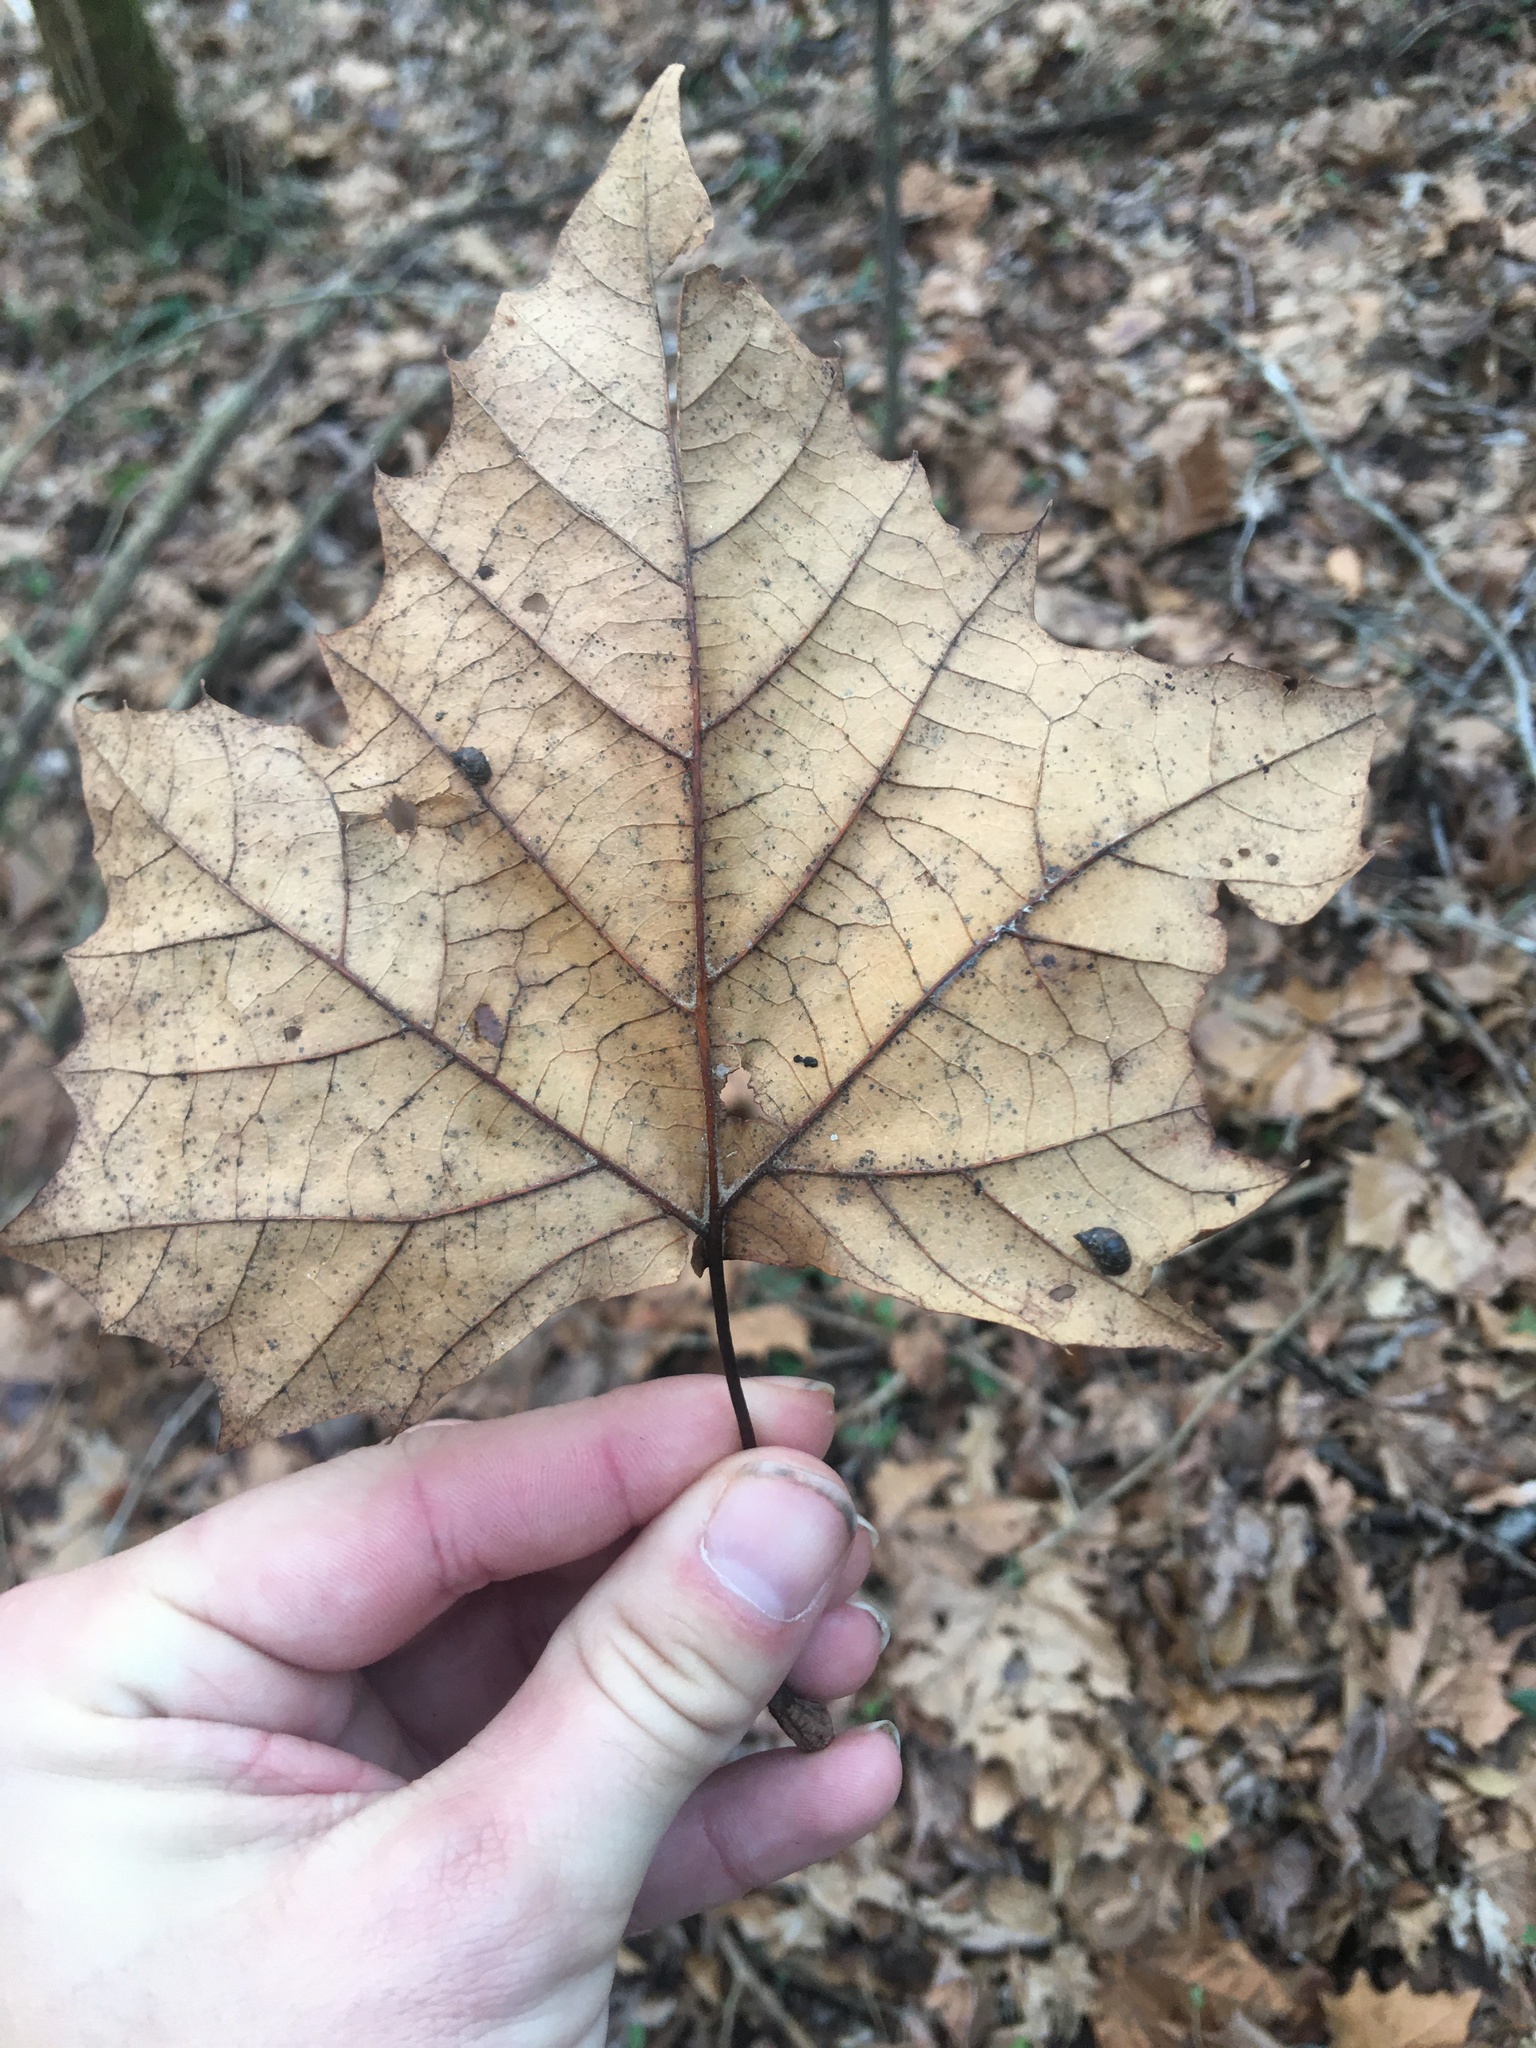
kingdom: Plantae
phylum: Tracheophyta
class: Magnoliopsida
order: Proteales
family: Platanaceae
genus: Platanus
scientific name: Platanus occidentalis
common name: American sycamore
